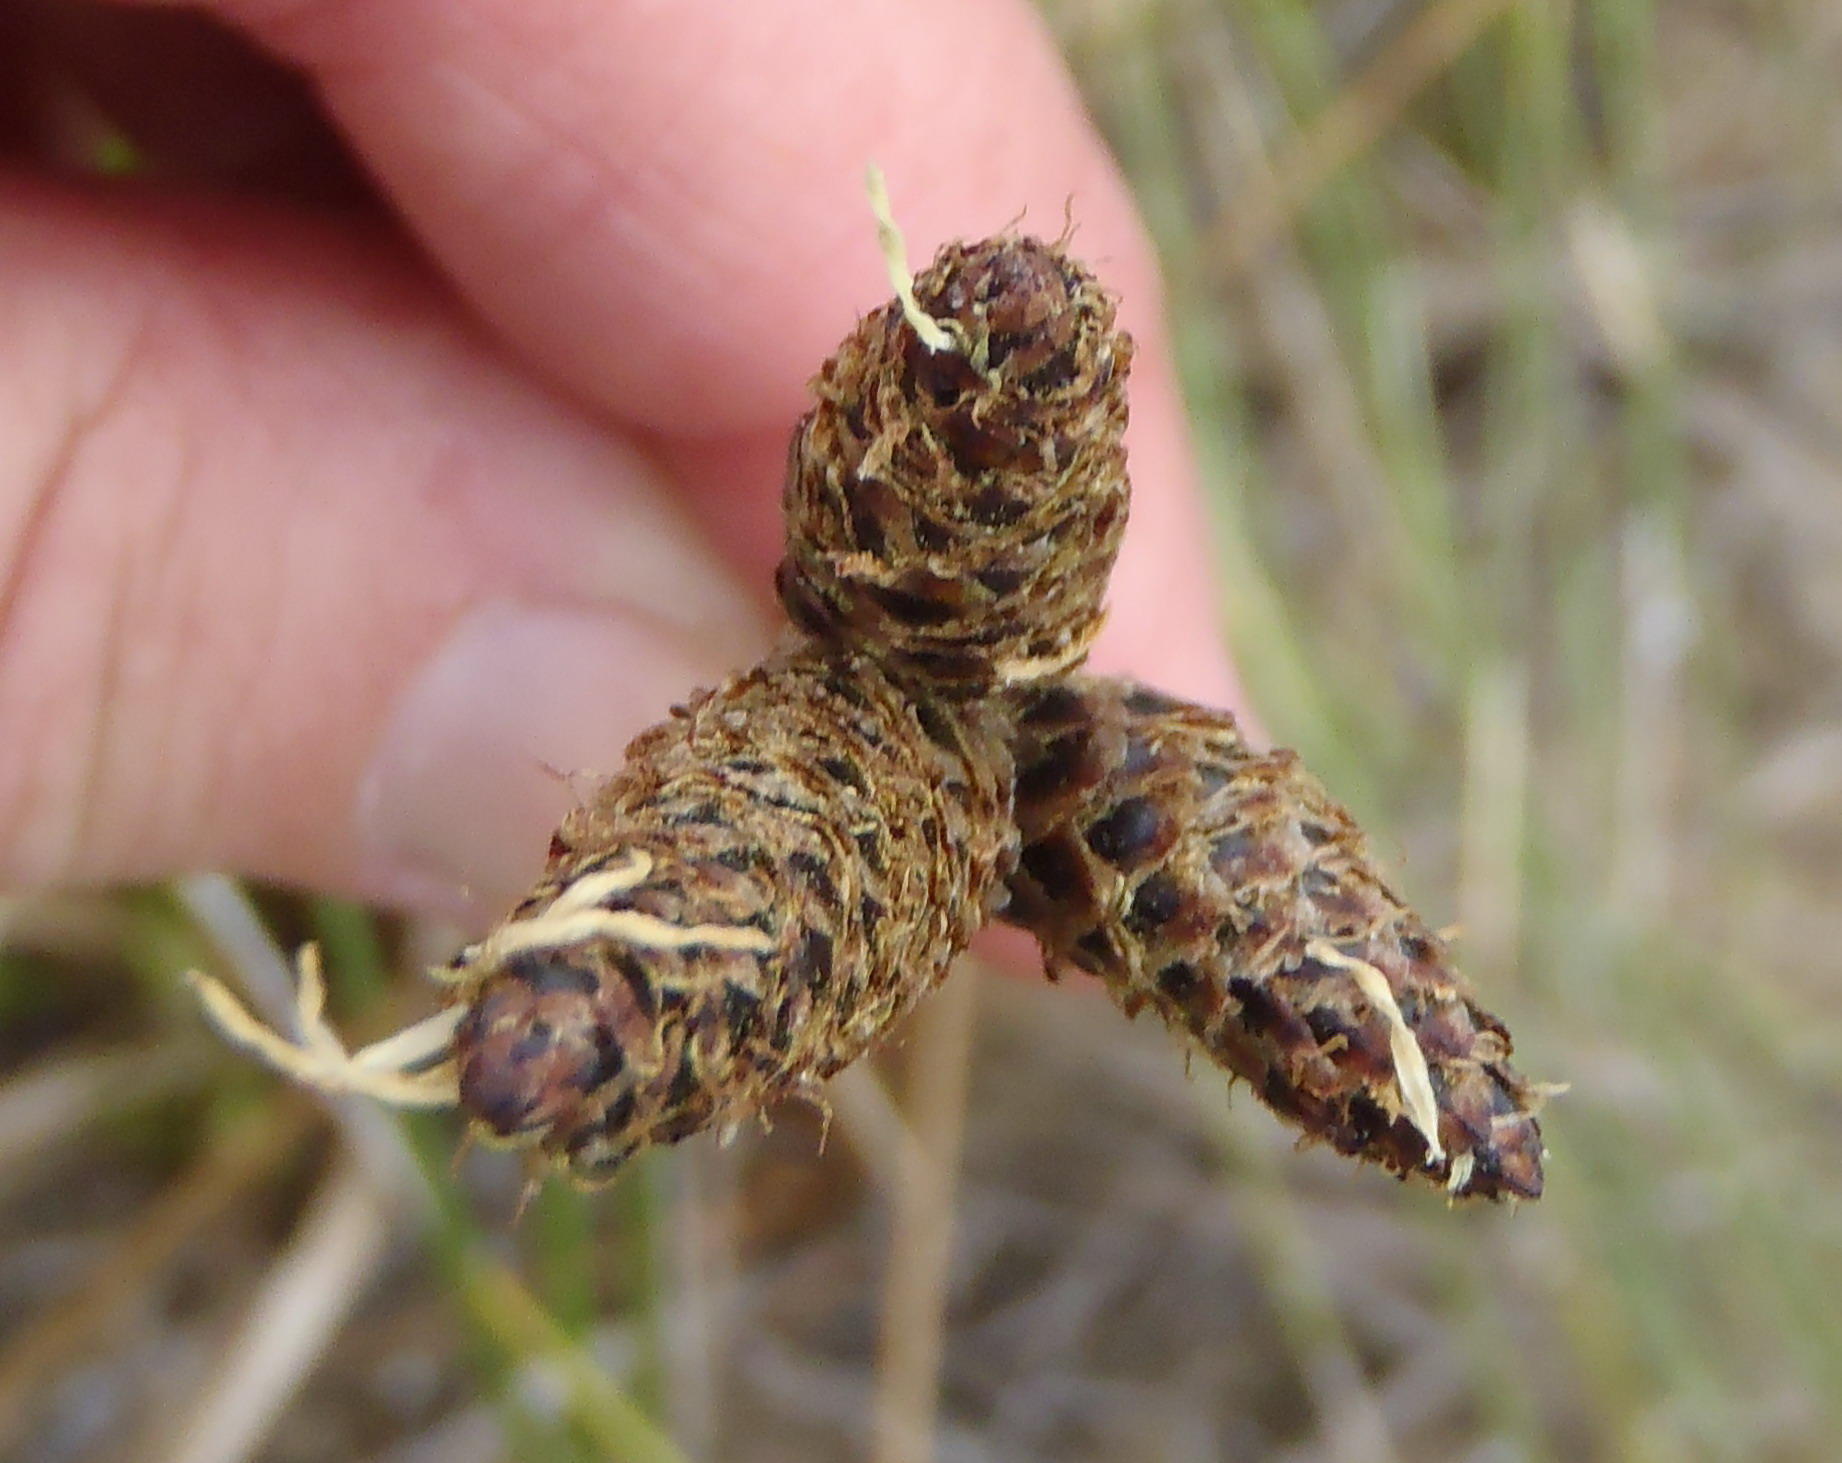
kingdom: Plantae
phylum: Tracheophyta
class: Liliopsida
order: Poales
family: Cyperaceae
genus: Hellmuthia
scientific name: Hellmuthia membranacea
